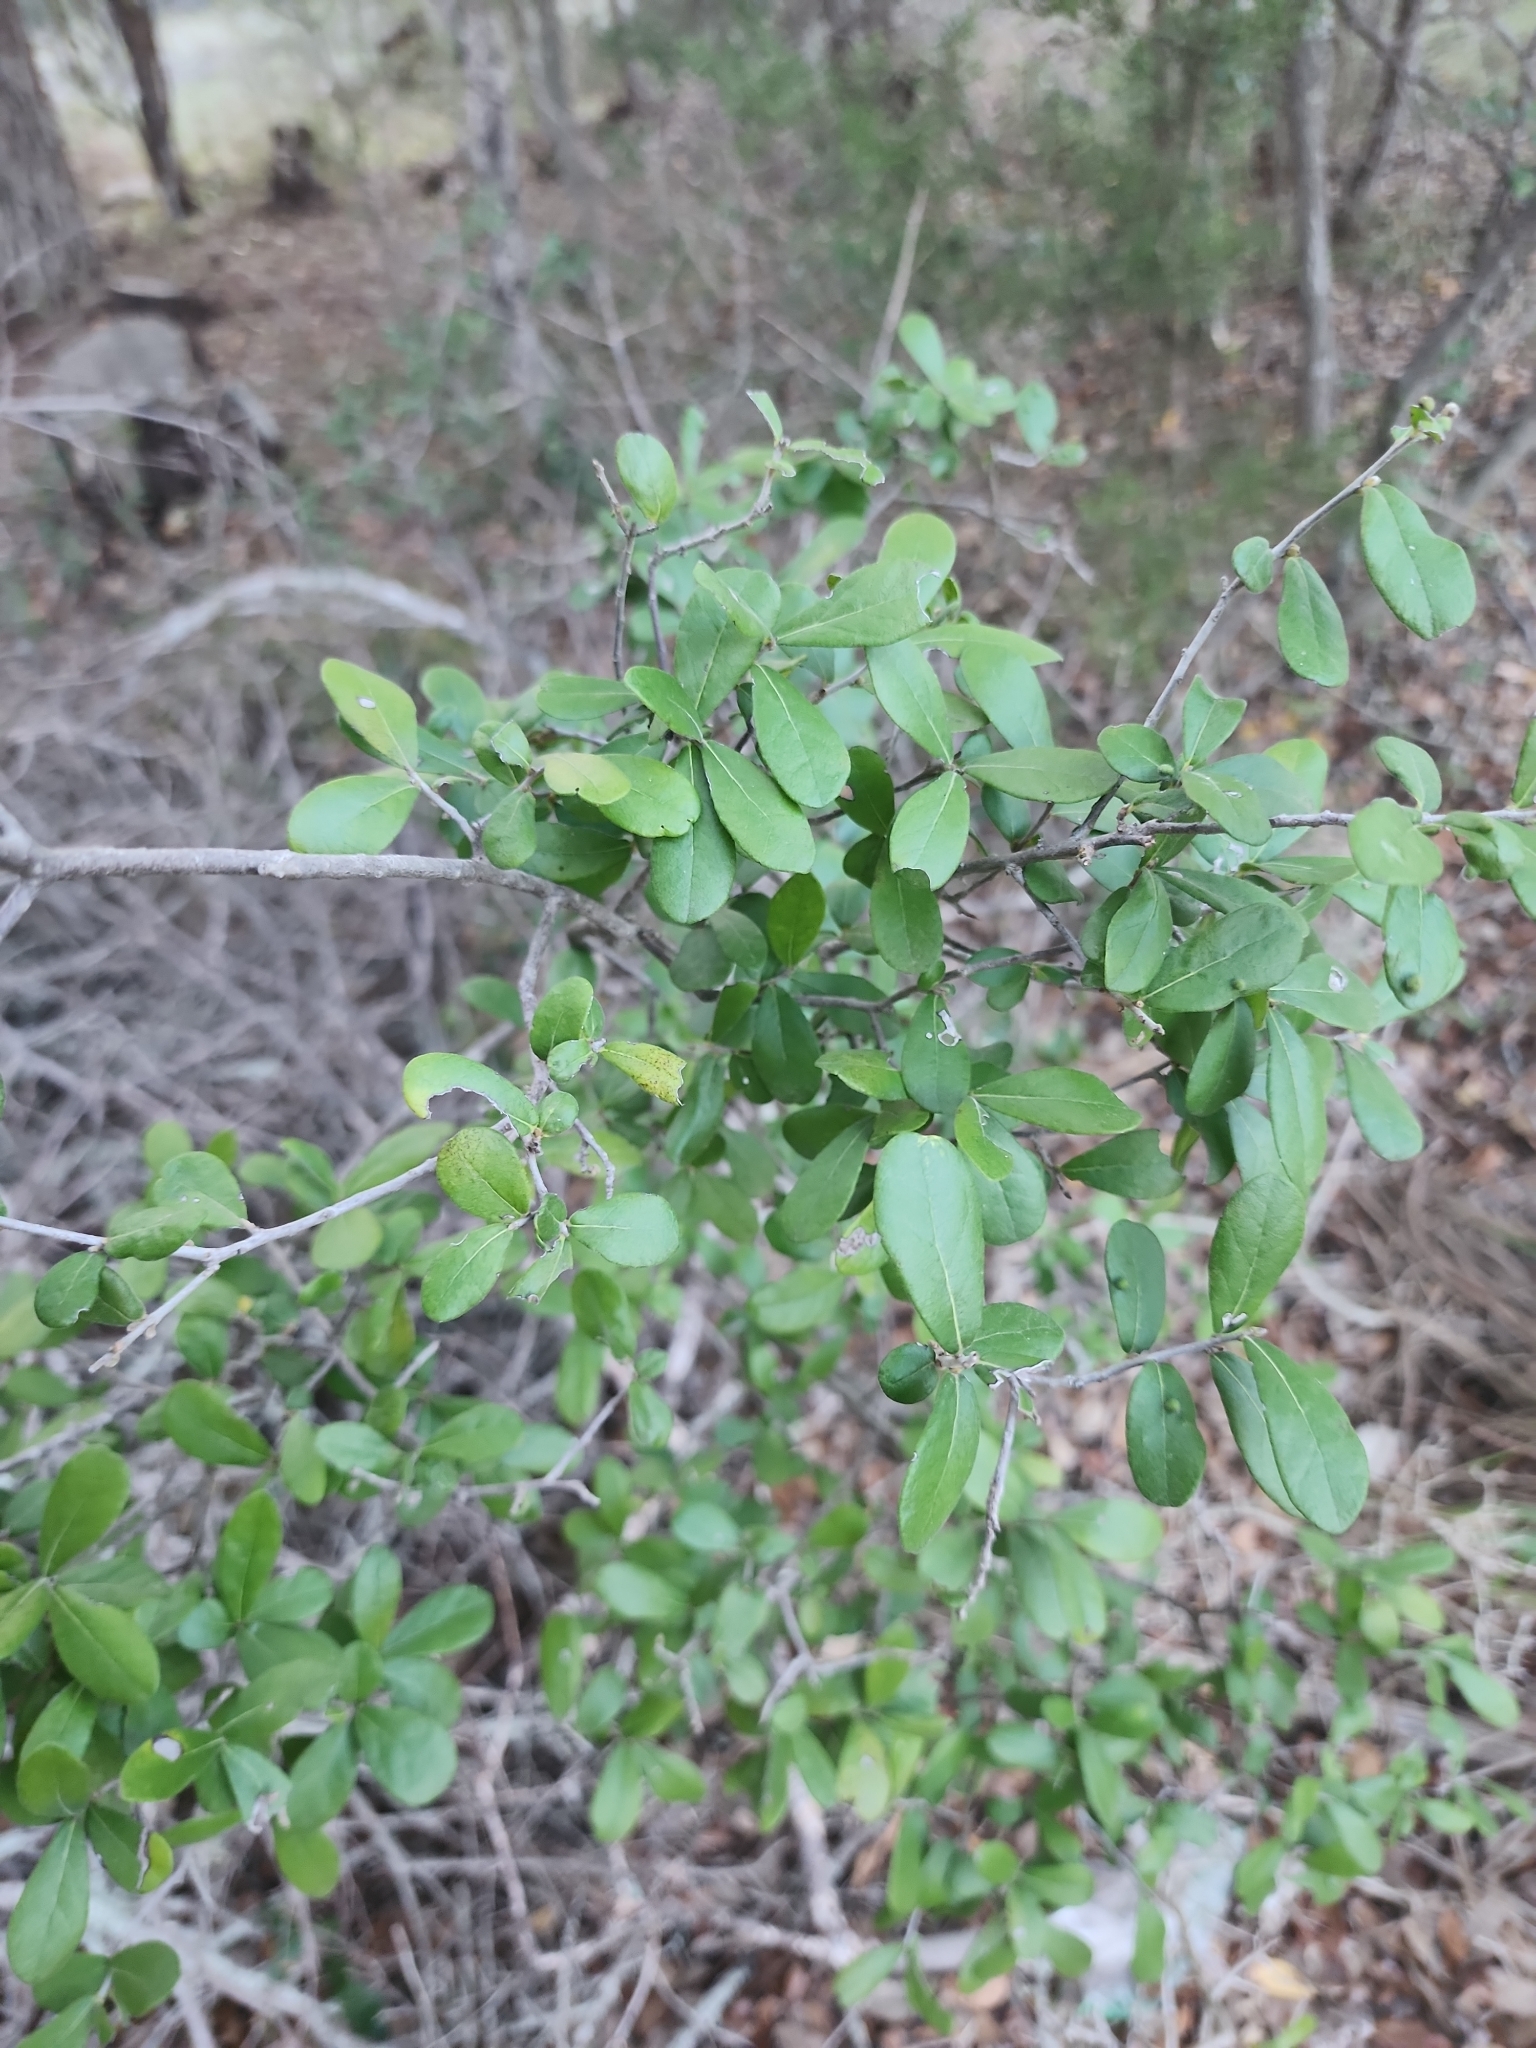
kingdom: Plantae
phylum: Tracheophyta
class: Magnoliopsida
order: Ericales
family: Ebenaceae
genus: Diospyros
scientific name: Diospyros texana
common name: Texas persimmon
